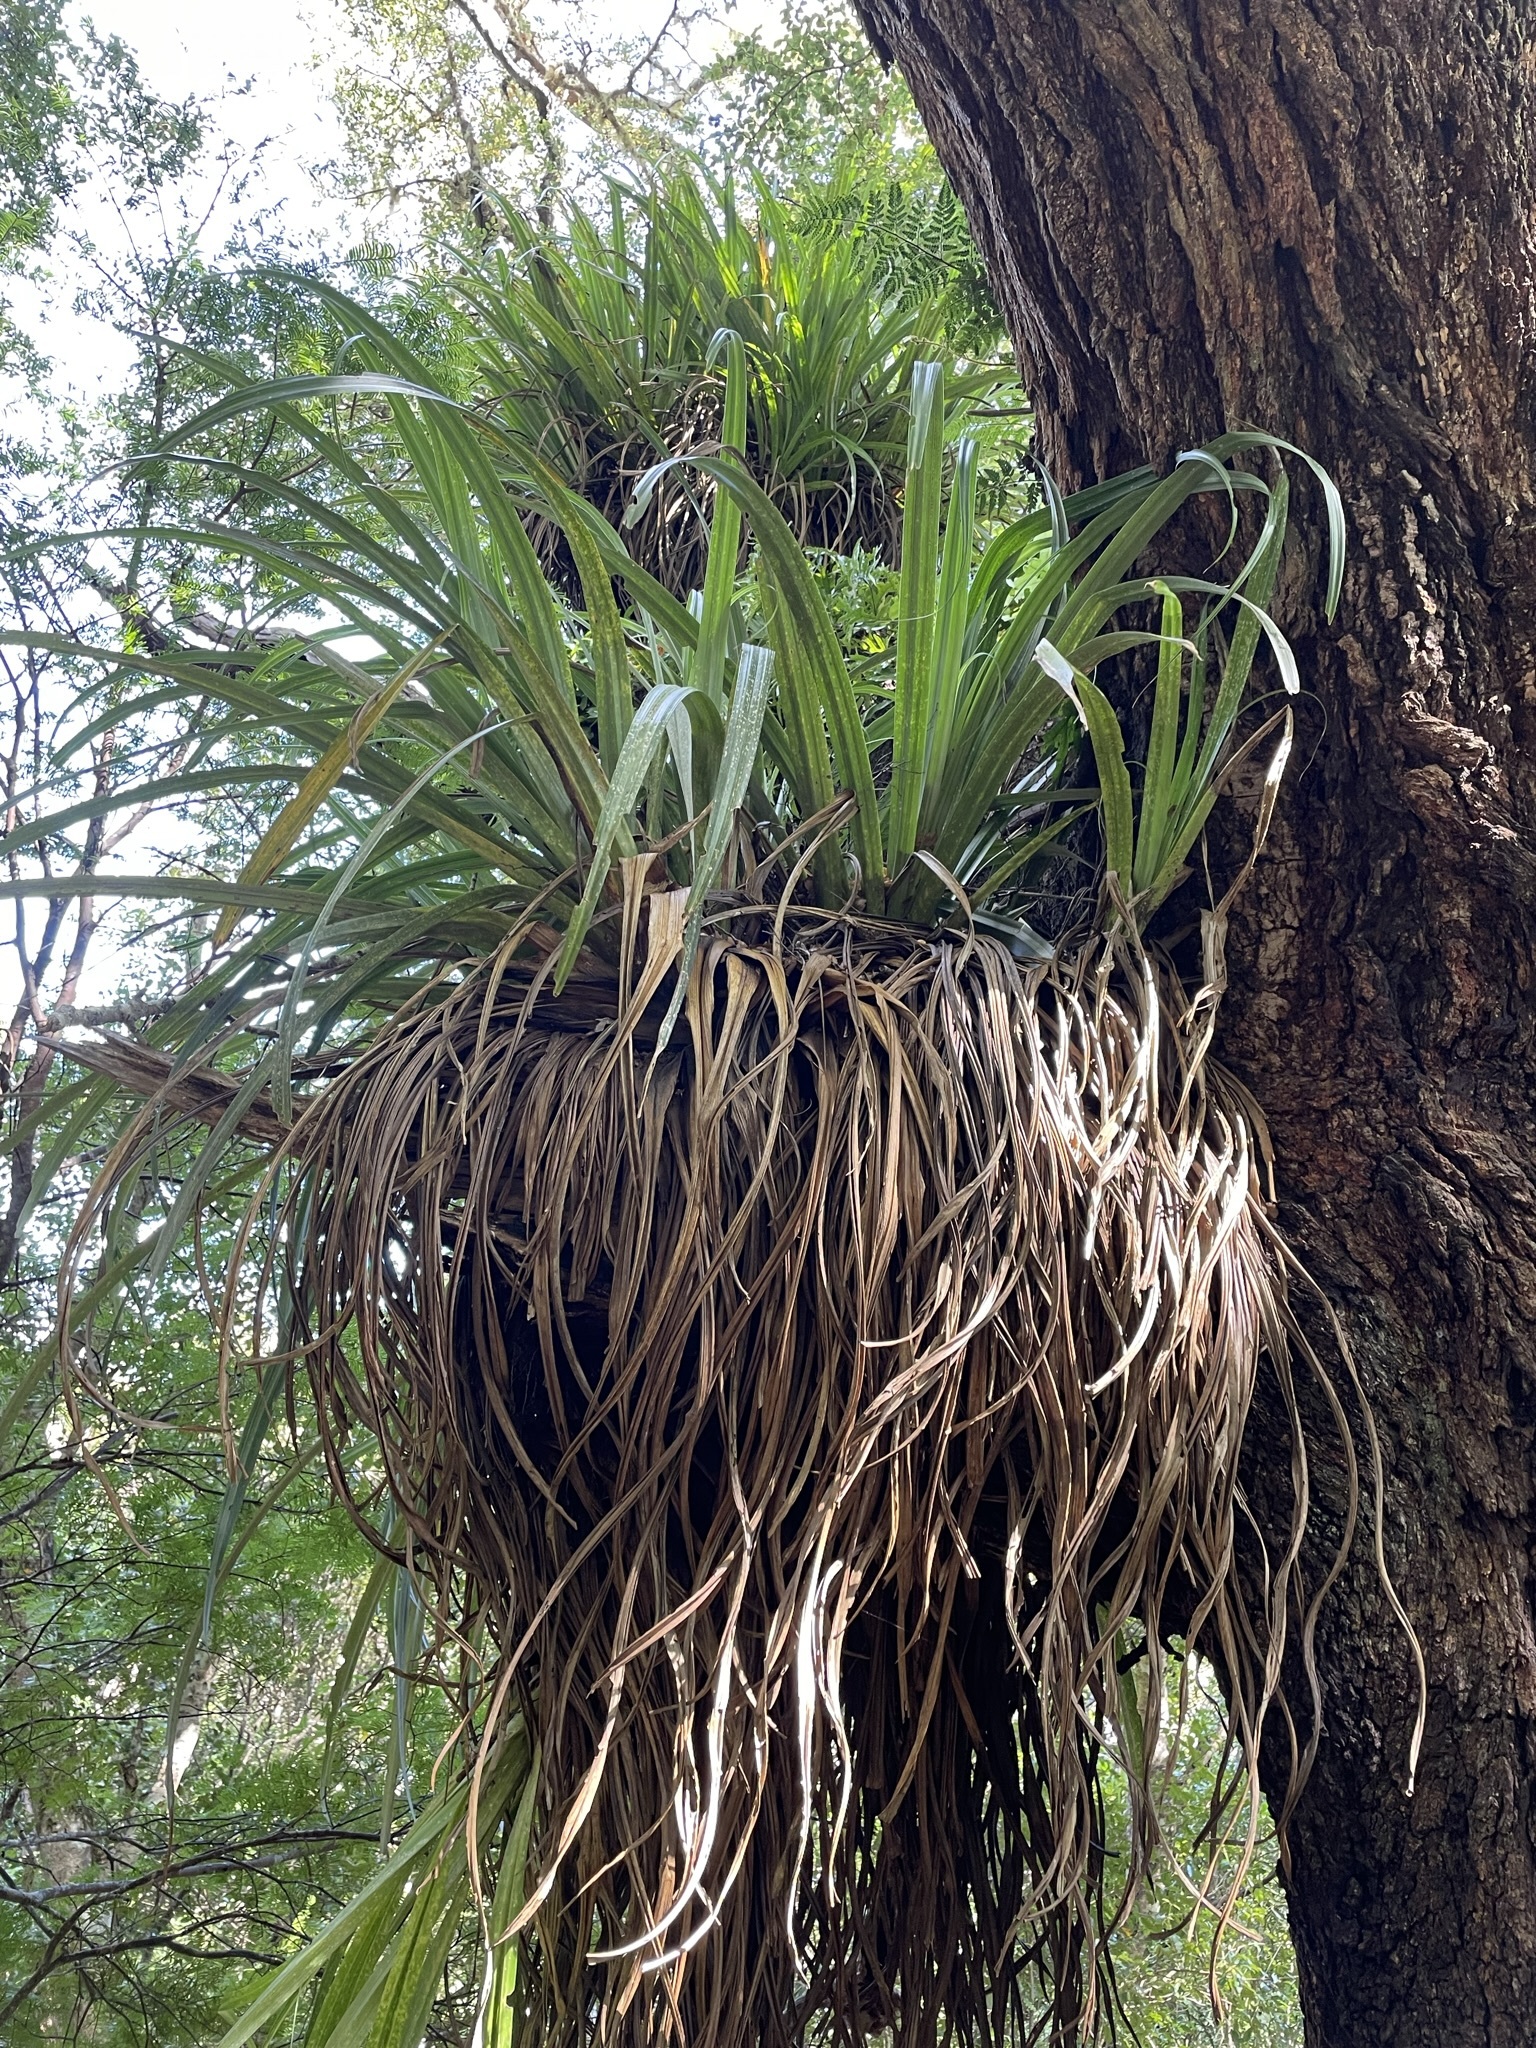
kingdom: Plantae
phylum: Tracheophyta
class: Liliopsida
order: Asparagales
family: Asteliaceae
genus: Astelia
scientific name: Astelia hastata
